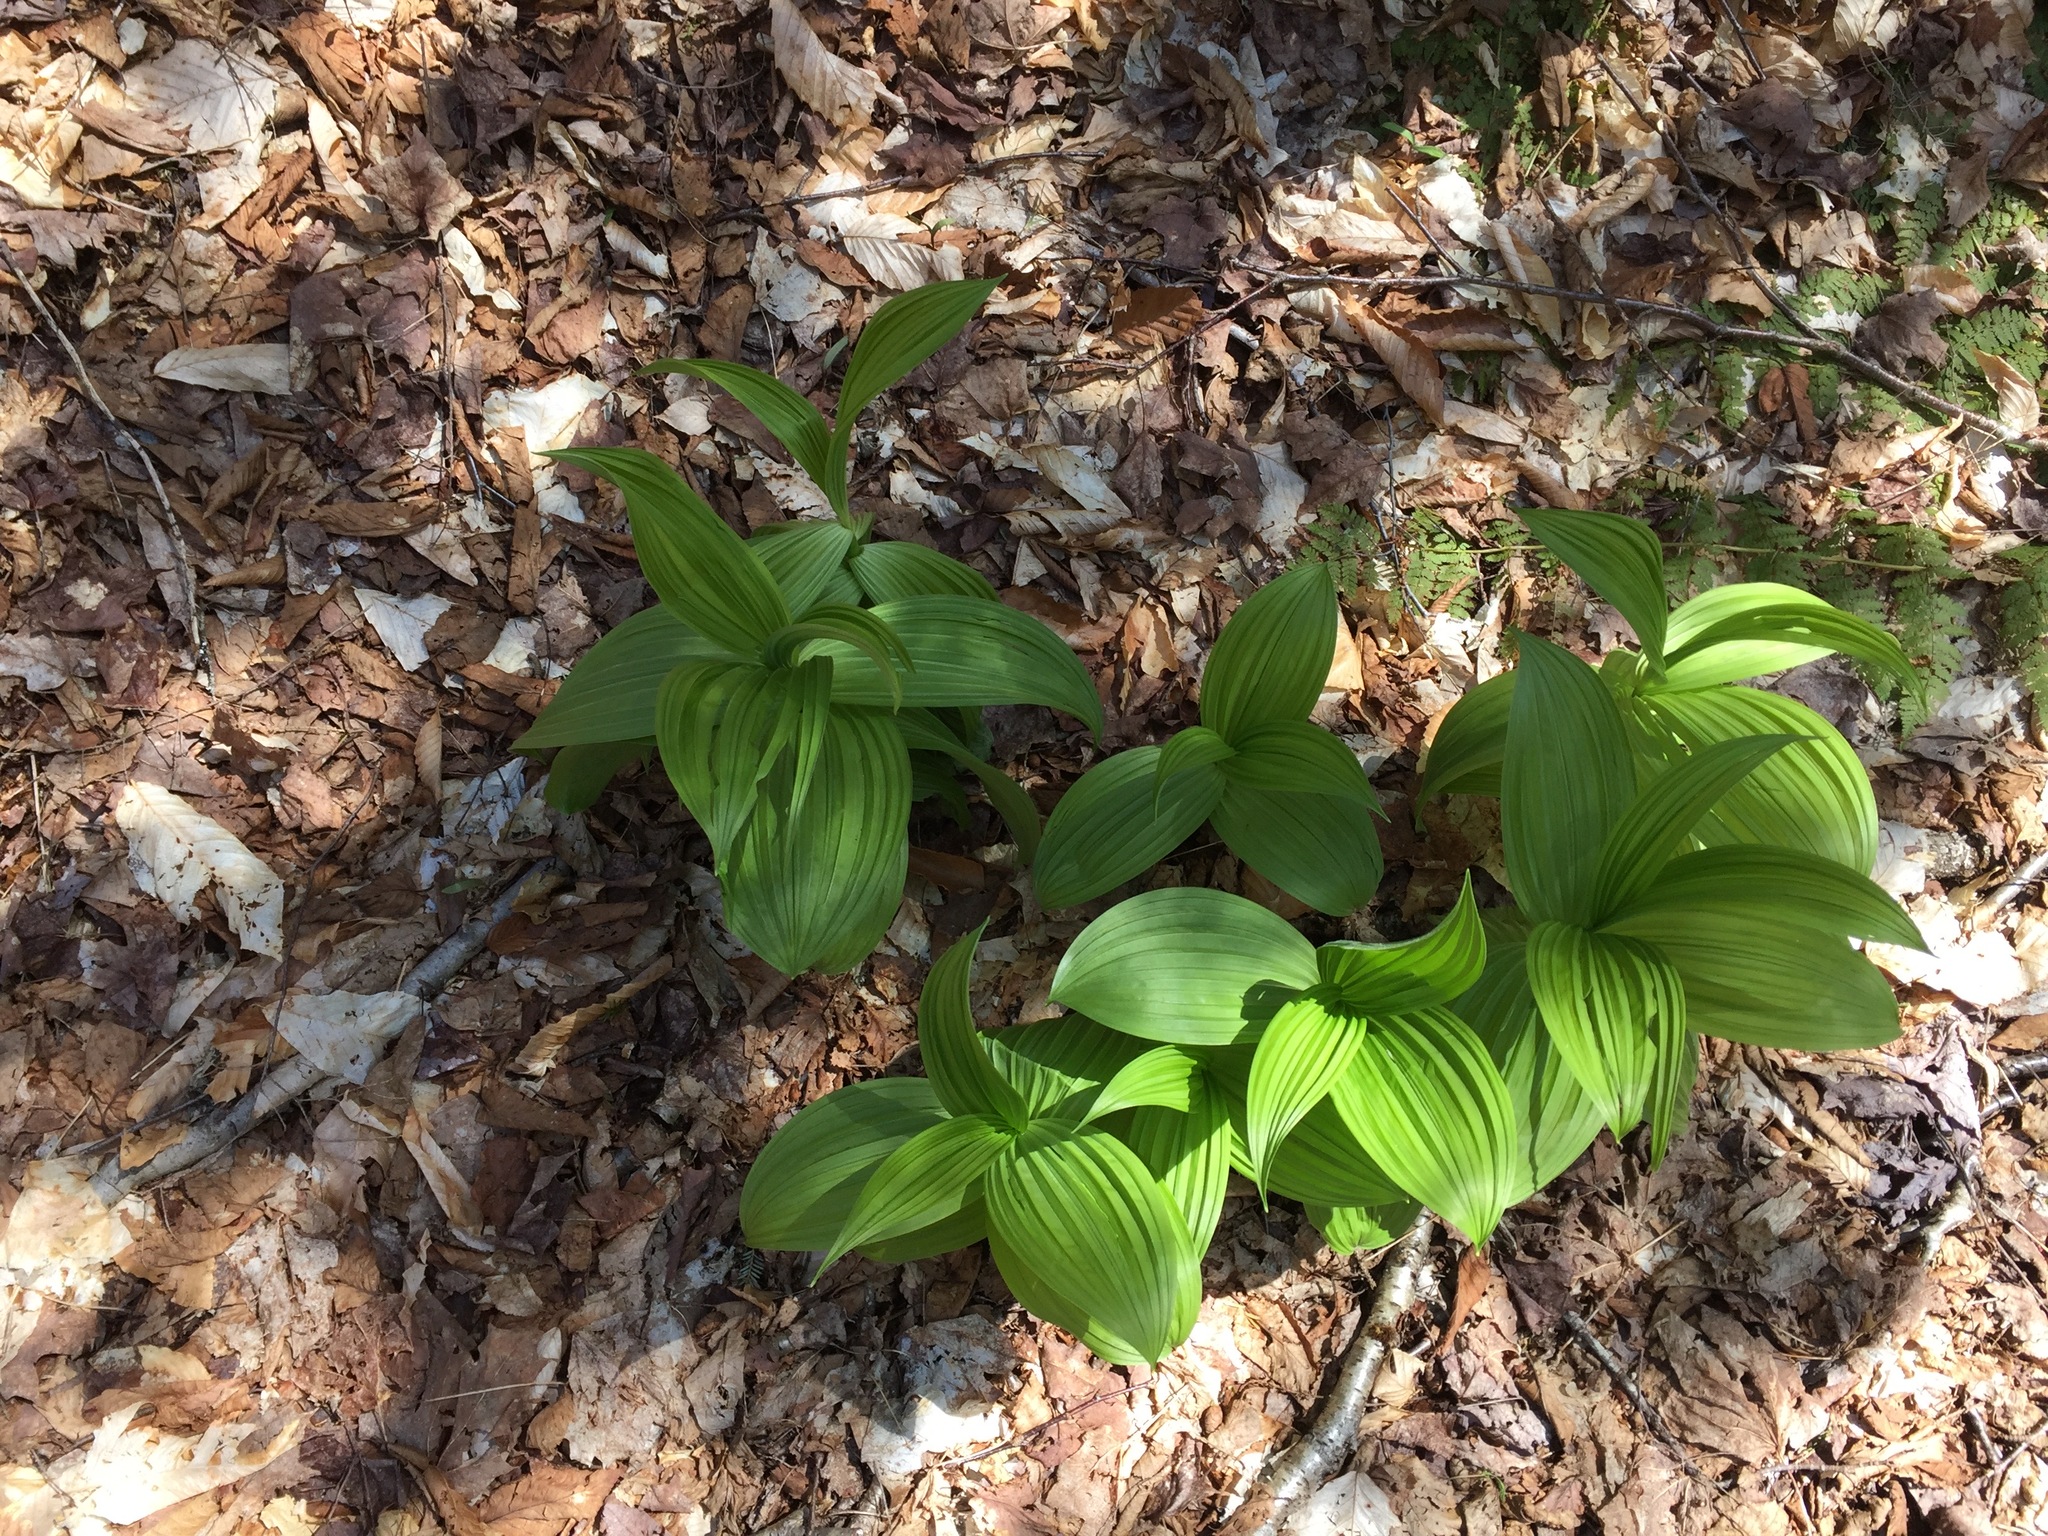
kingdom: Plantae
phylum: Tracheophyta
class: Liliopsida
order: Liliales
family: Melanthiaceae
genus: Veratrum
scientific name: Veratrum viride
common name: American false hellebore
